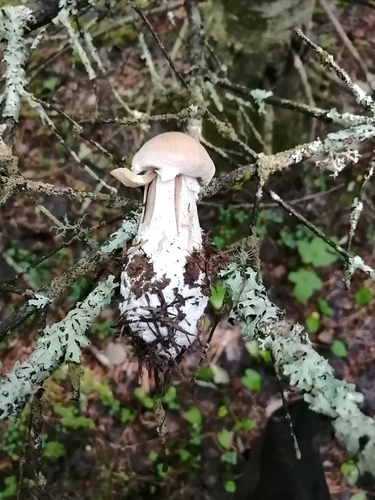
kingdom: Fungi
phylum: Basidiomycota
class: Agaricomycetes
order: Agaricales
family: Cortinariaceae
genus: Cortinarius
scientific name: Cortinarius
